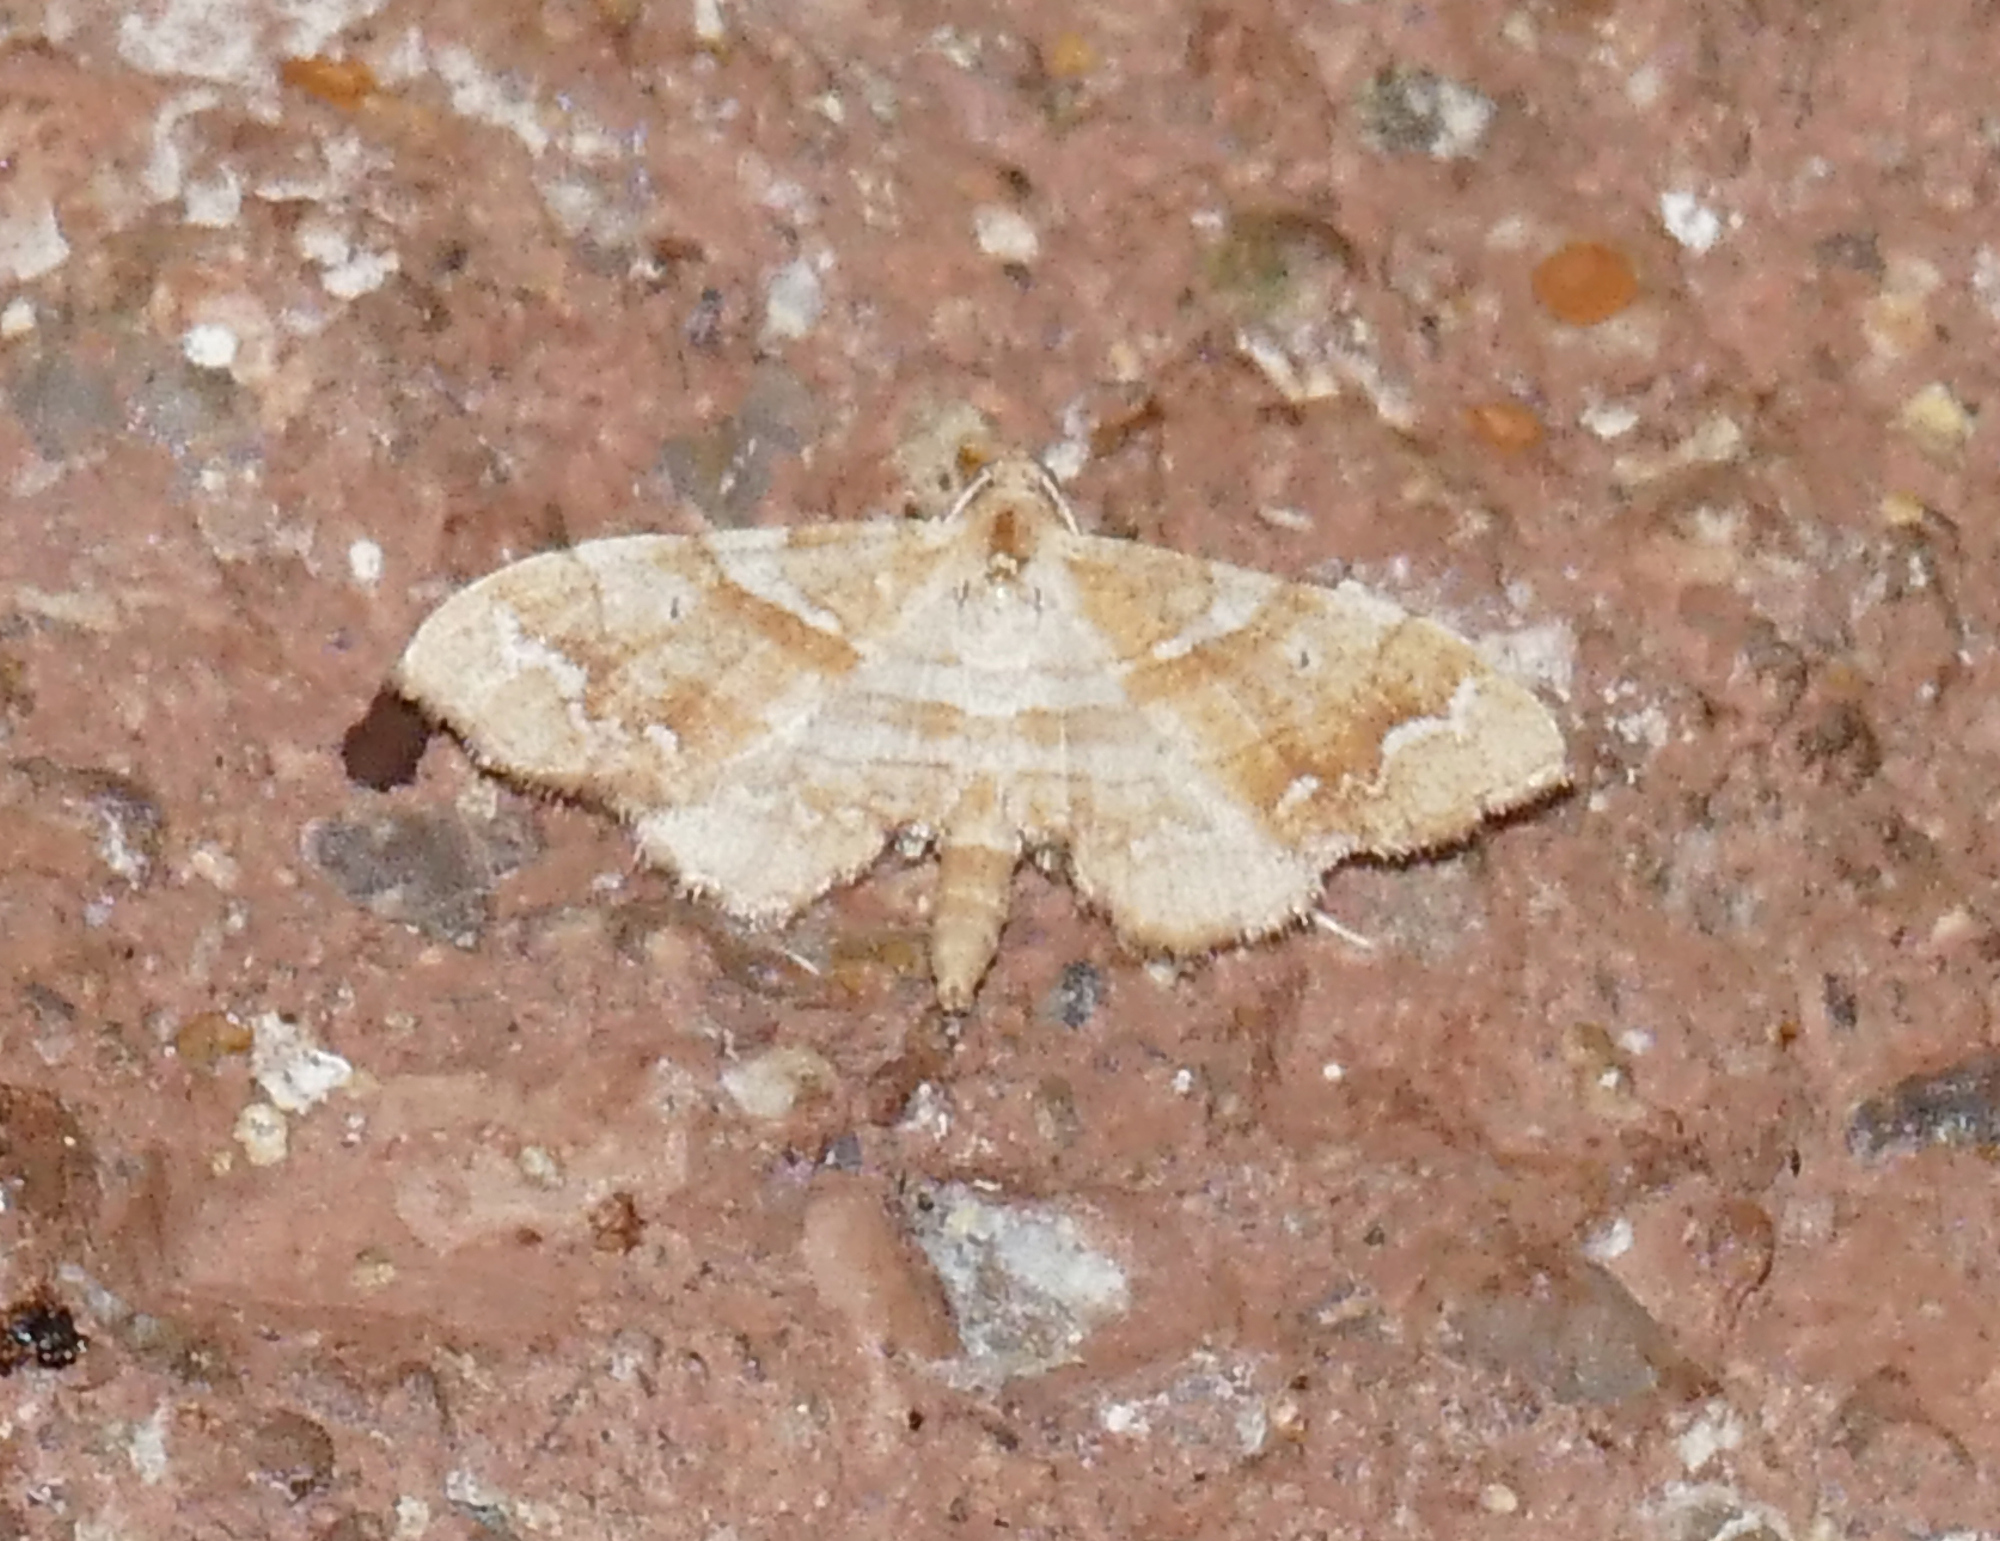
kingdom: Animalia
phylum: Arthropoda
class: Insecta
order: Lepidoptera
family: Geometridae
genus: Odontoptila
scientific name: Odontoptila obrimo
